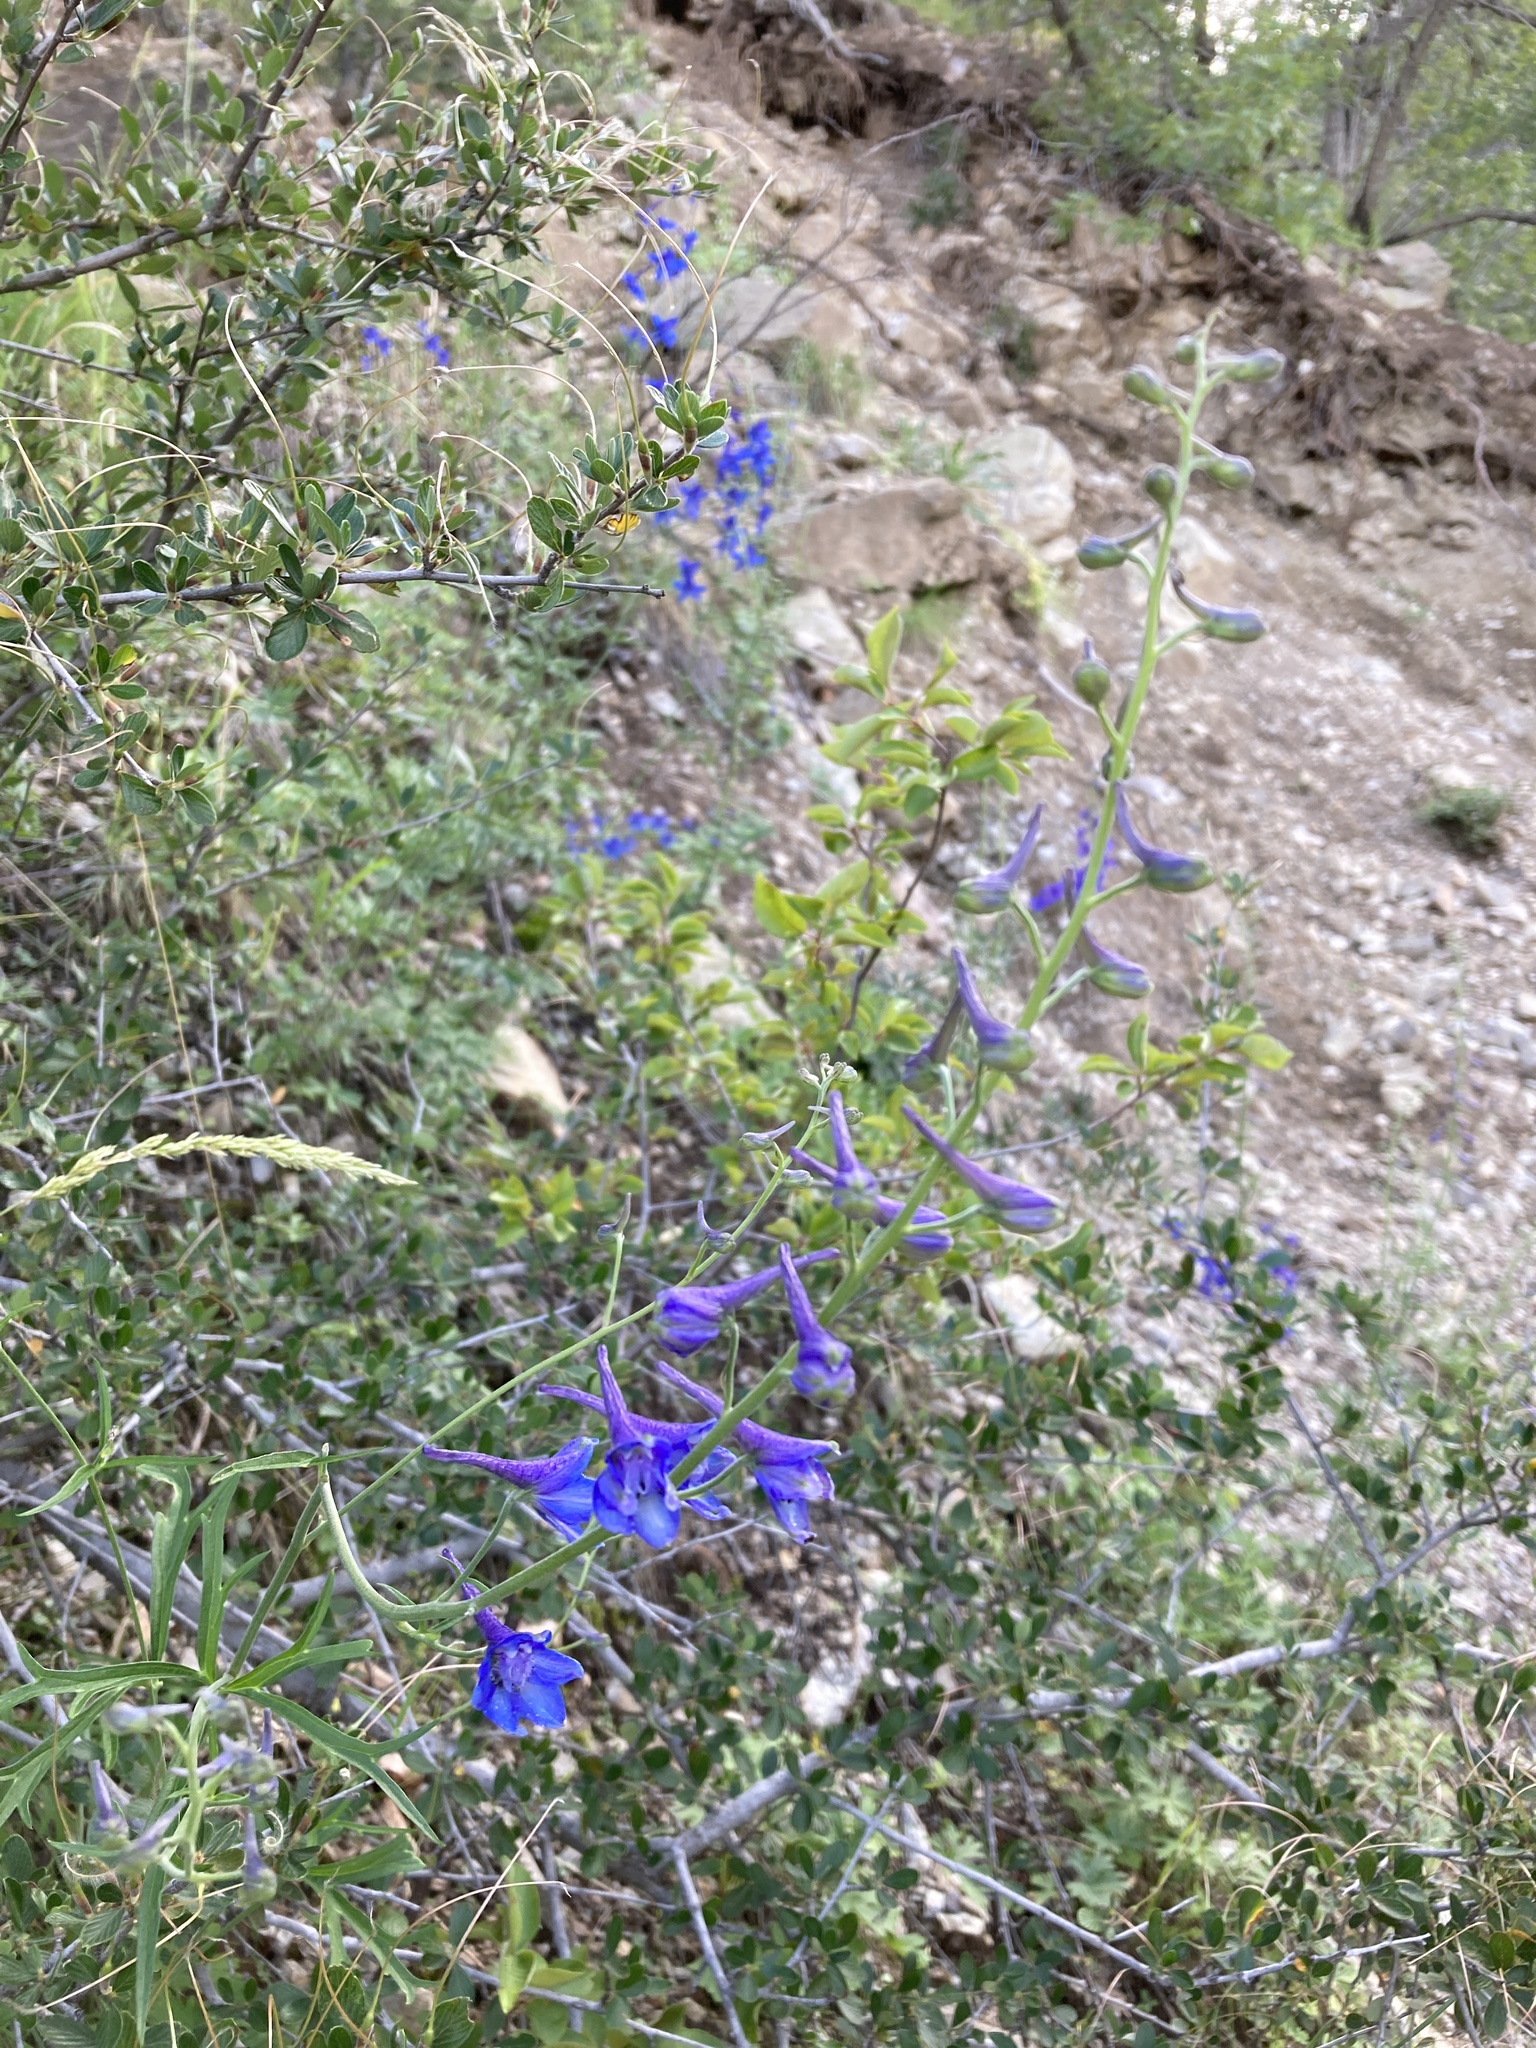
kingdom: Plantae
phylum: Tracheophyta
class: Magnoliopsida
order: Ranunculales
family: Ranunculaceae
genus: Delphinium
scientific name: Delphinium scopulorum
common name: Rocky mountain larkspur
